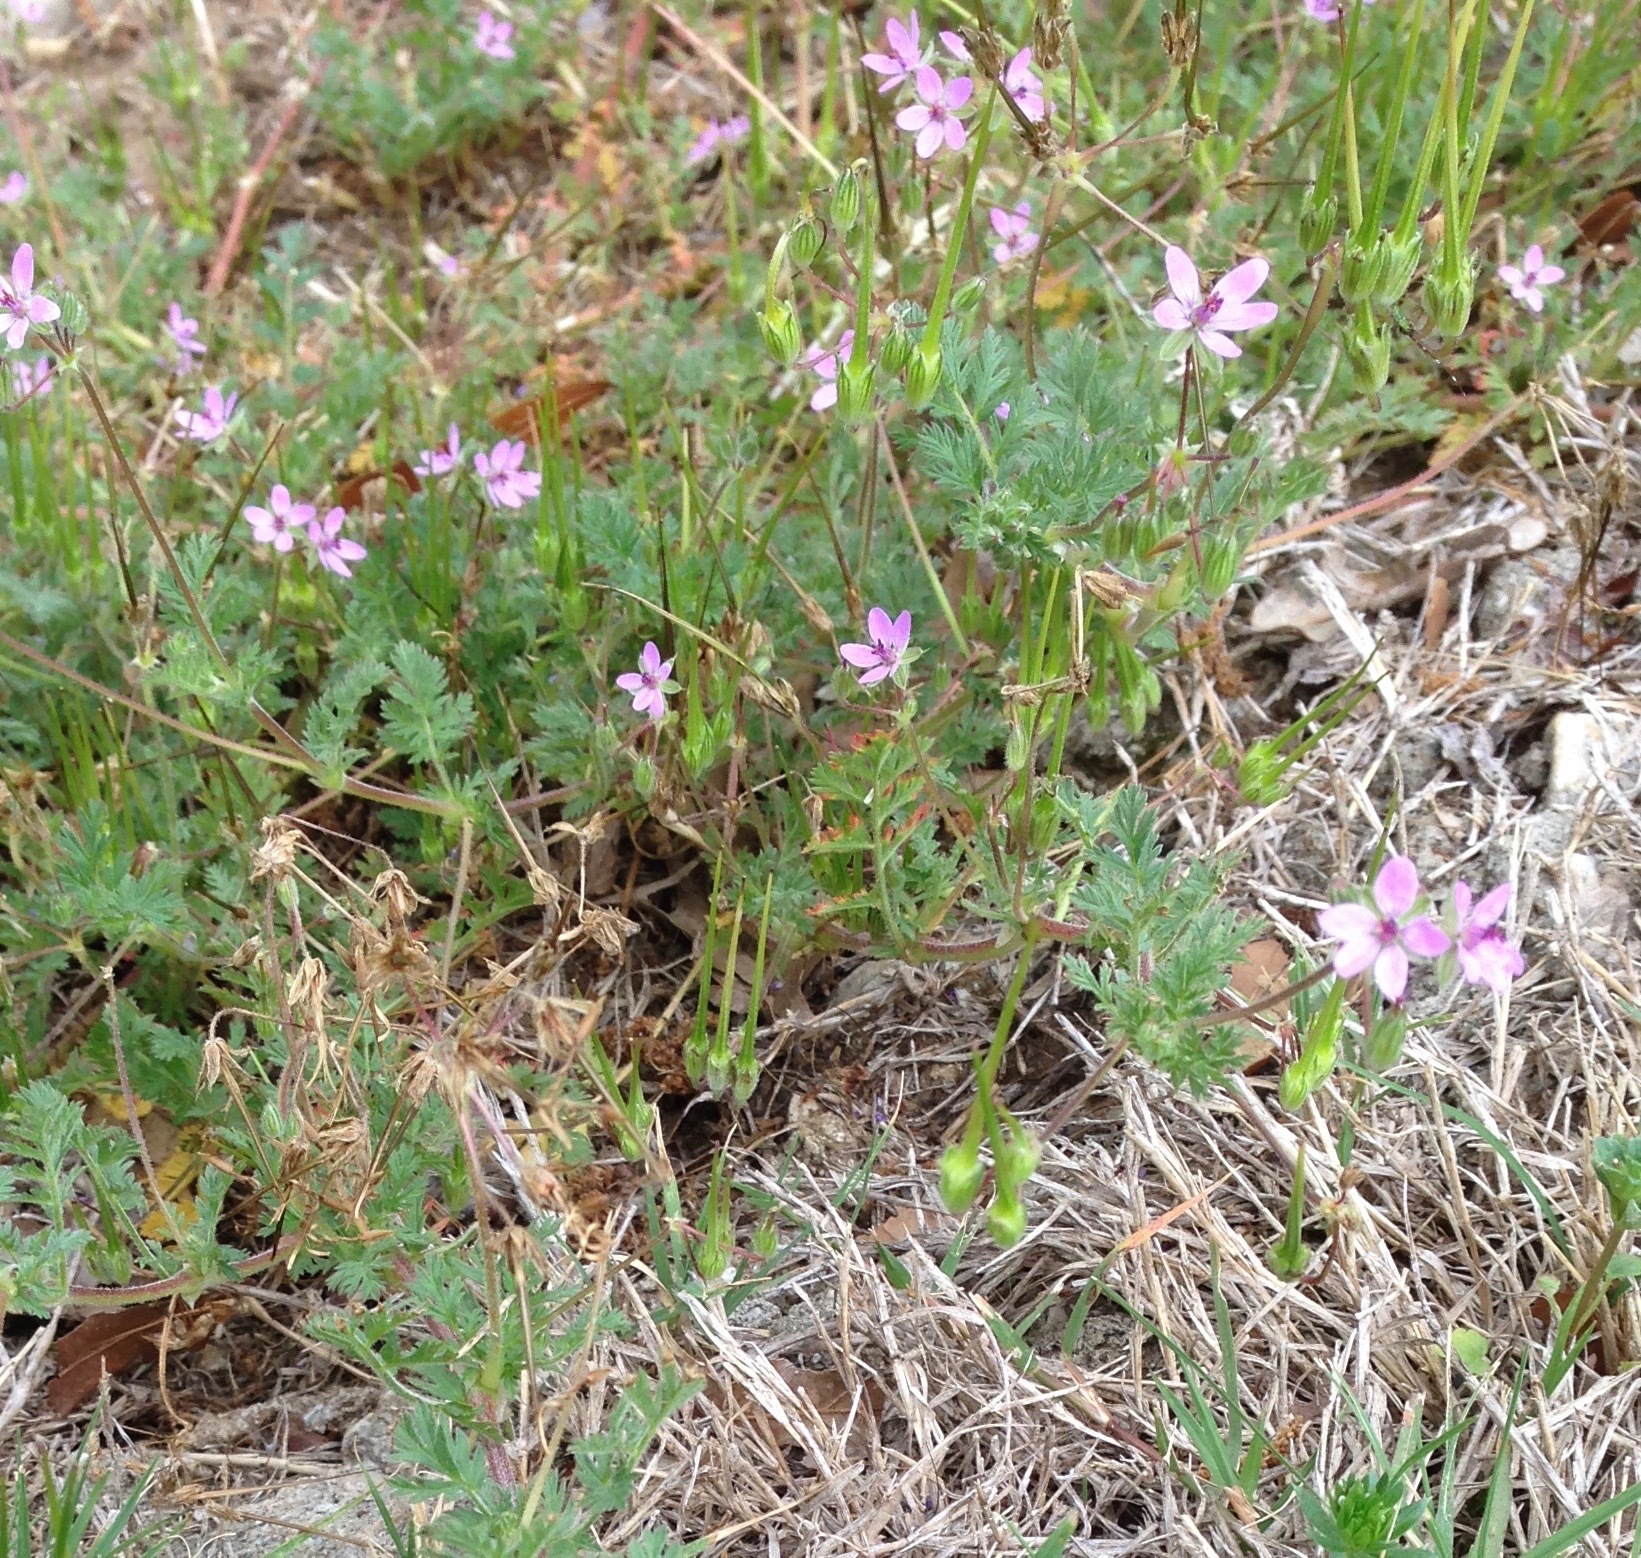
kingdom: Plantae
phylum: Tracheophyta
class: Magnoliopsida
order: Geraniales
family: Geraniaceae
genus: Erodium
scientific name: Erodium cicutarium
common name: Common stork's-bill
